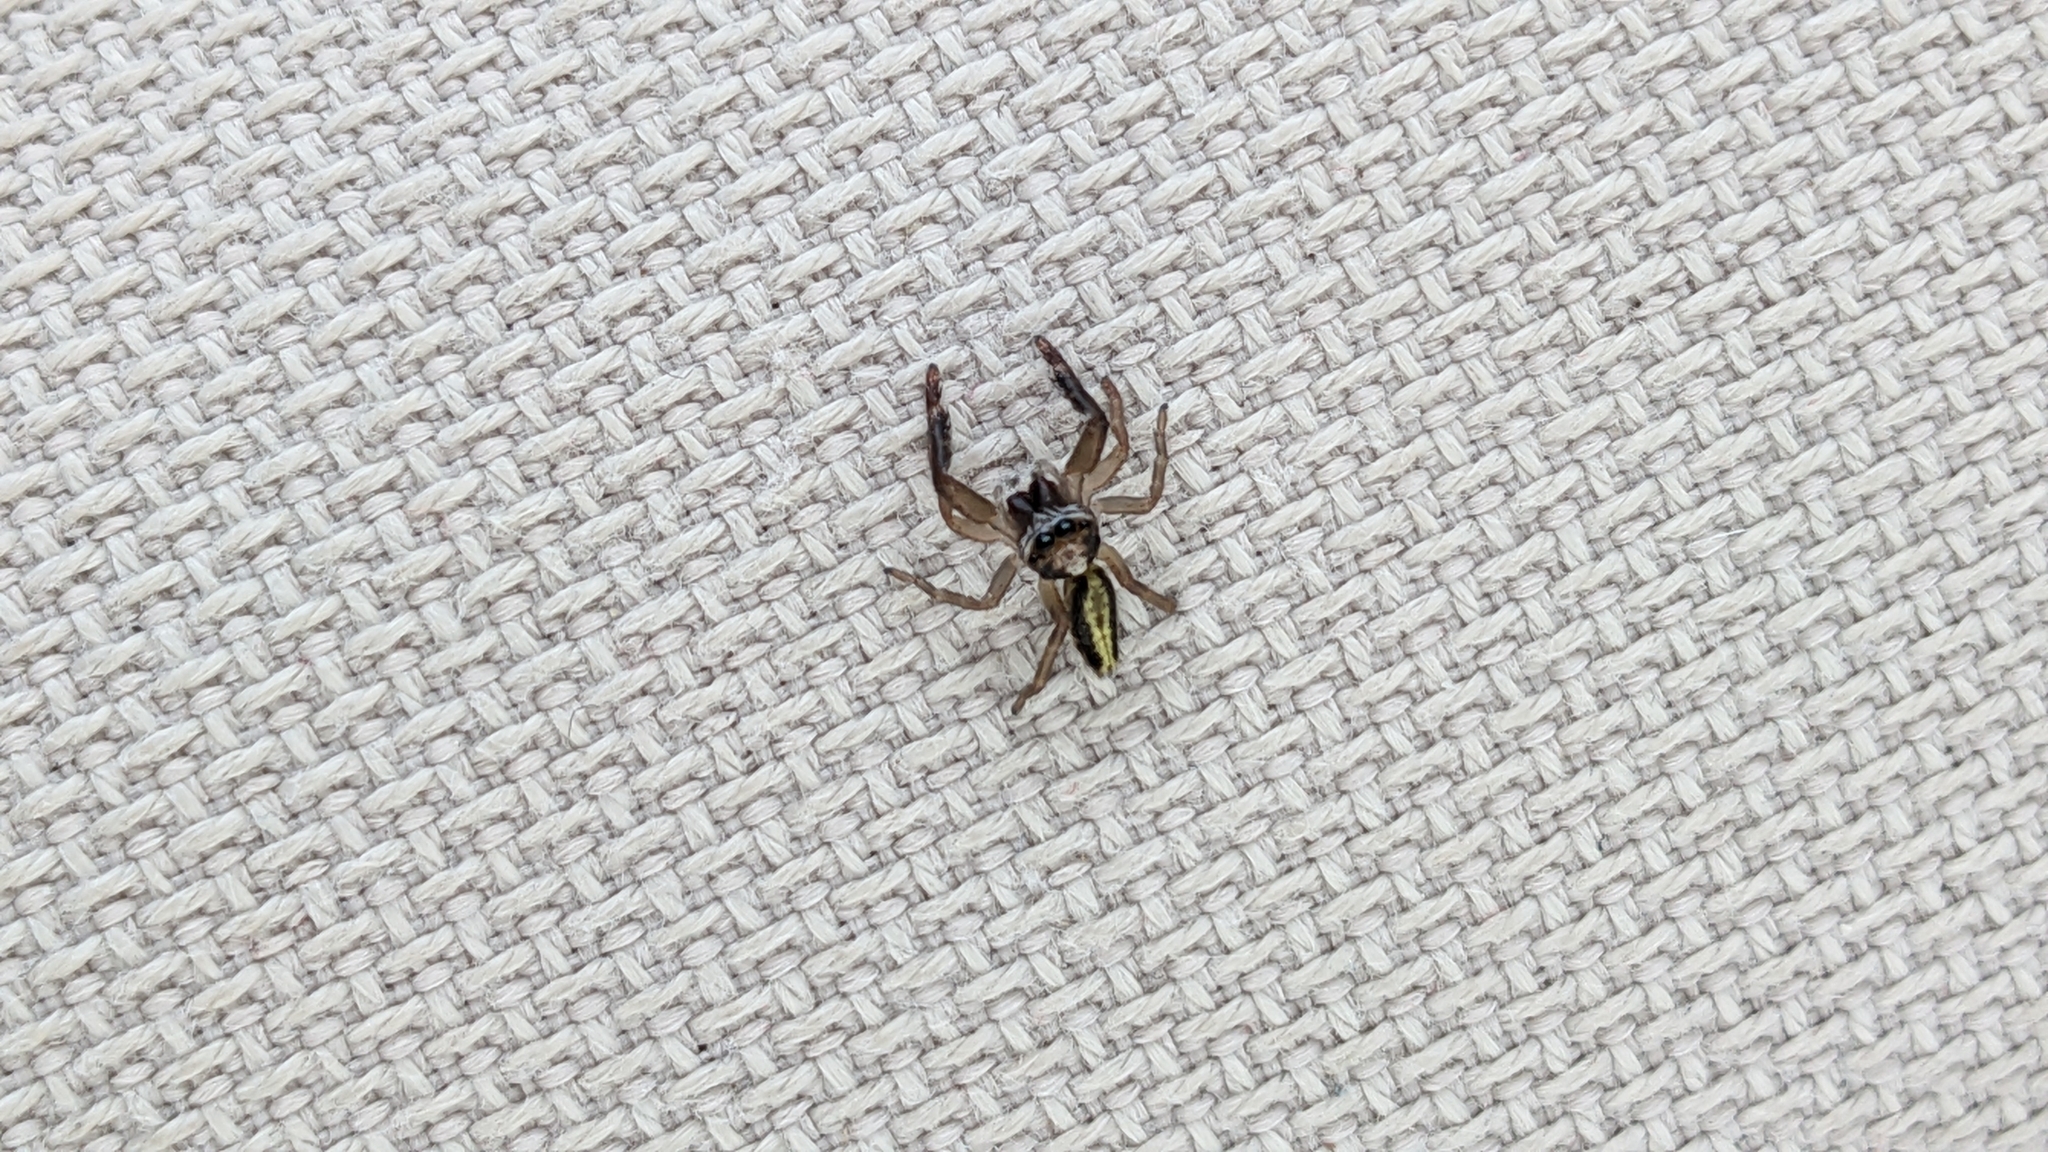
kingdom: Animalia
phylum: Arthropoda
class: Arachnida
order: Araneae
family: Salticidae
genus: Trite
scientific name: Trite planiceps
